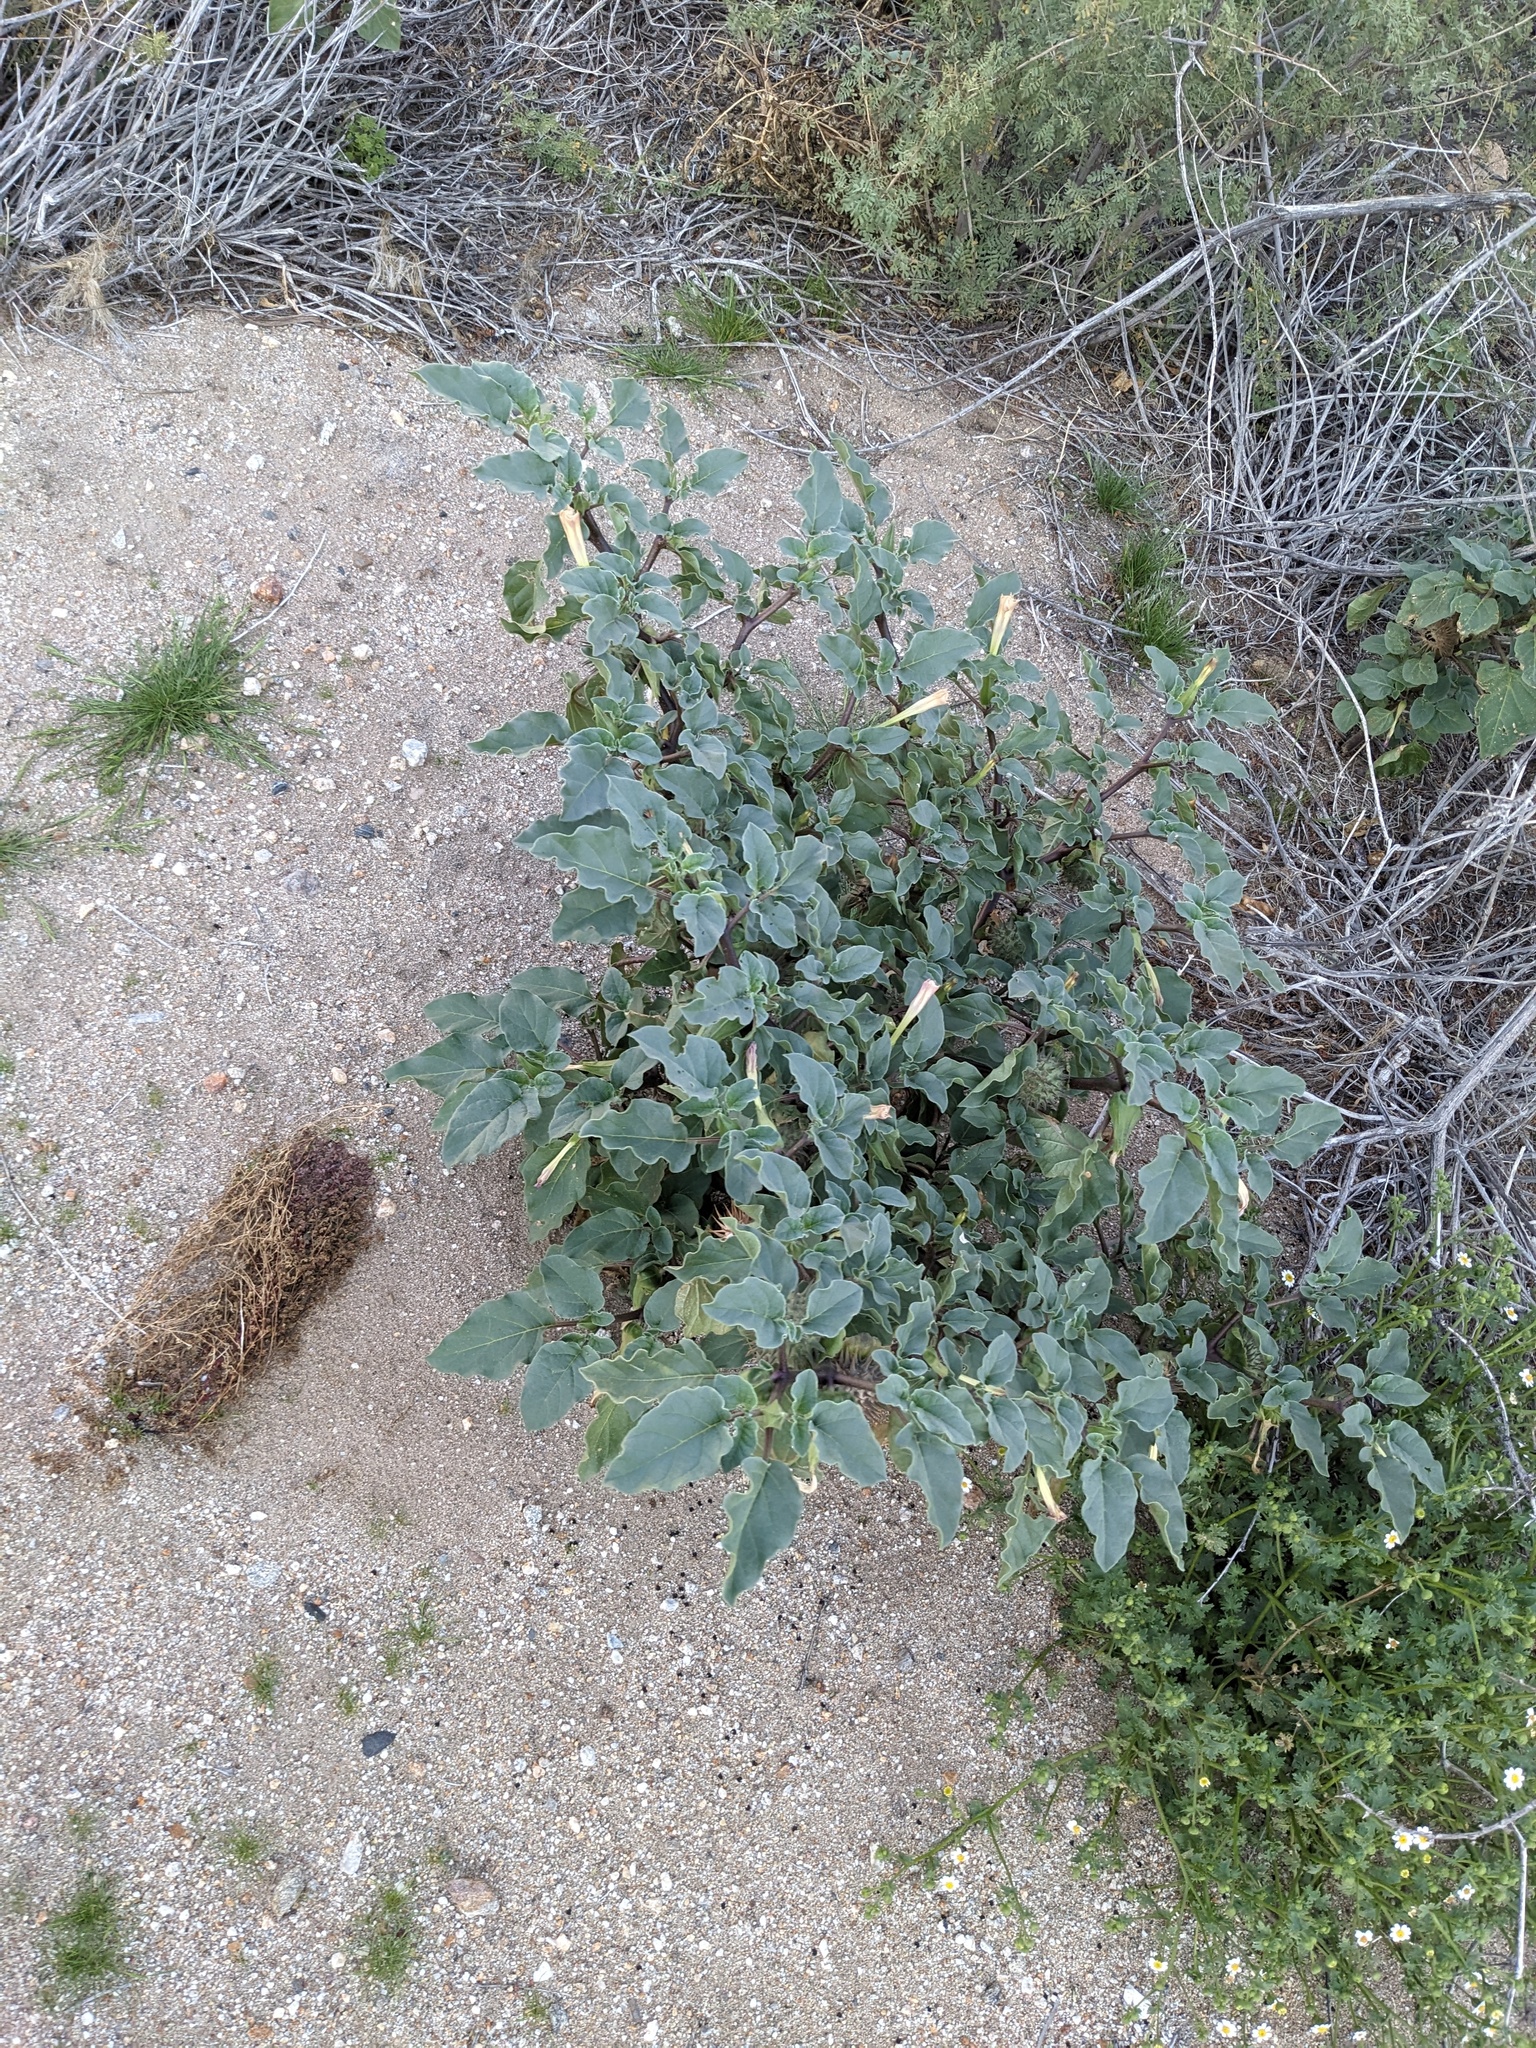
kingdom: Plantae
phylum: Tracheophyta
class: Magnoliopsida
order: Solanales
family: Solanaceae
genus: Datura
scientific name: Datura discolor
